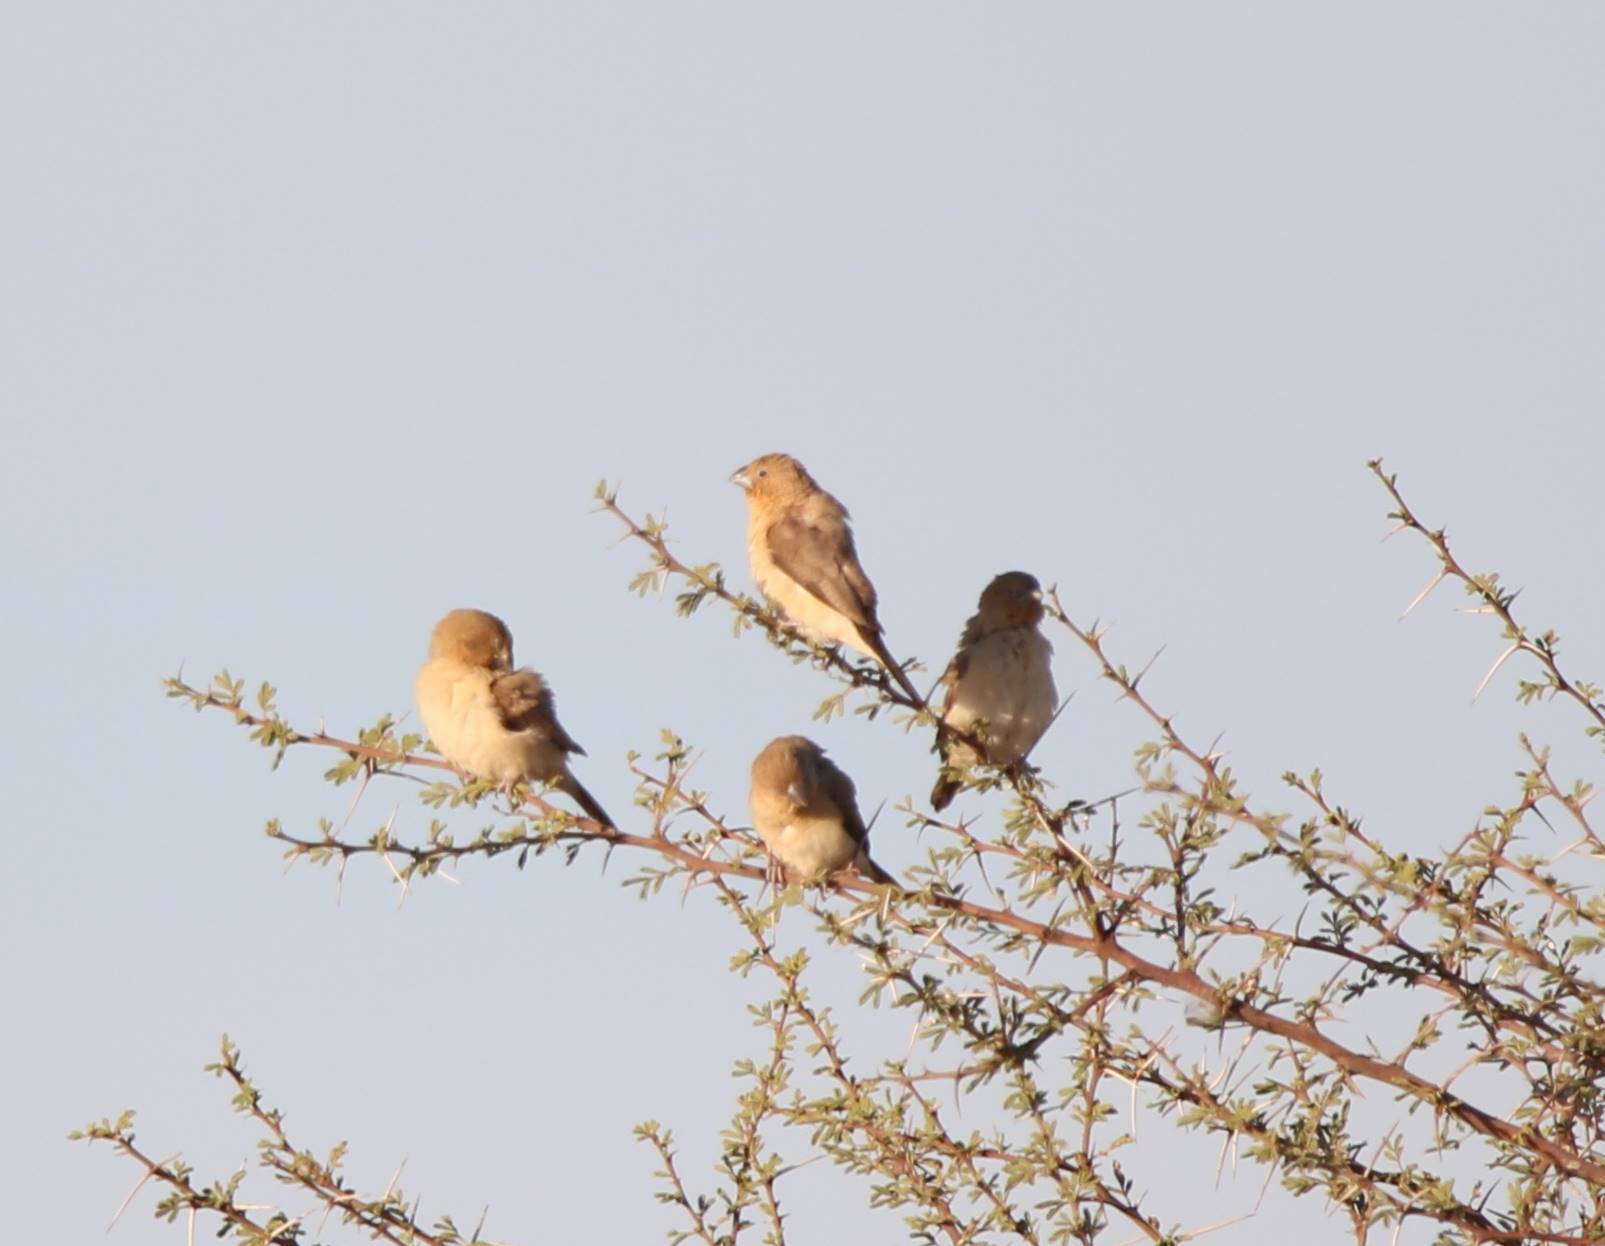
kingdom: Animalia
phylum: Chordata
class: Aves
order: Passeriformes
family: Estrildidae
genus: Euodice
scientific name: Euodice cantans
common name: African silverbill
